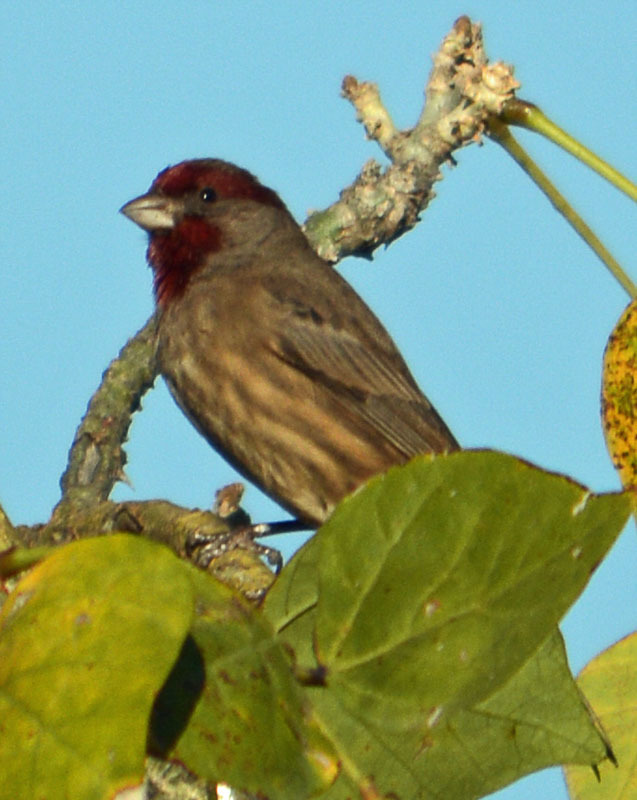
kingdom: Animalia
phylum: Chordata
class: Aves
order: Passeriformes
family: Fringillidae
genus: Haemorhous
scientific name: Haemorhous mexicanus
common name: House finch
